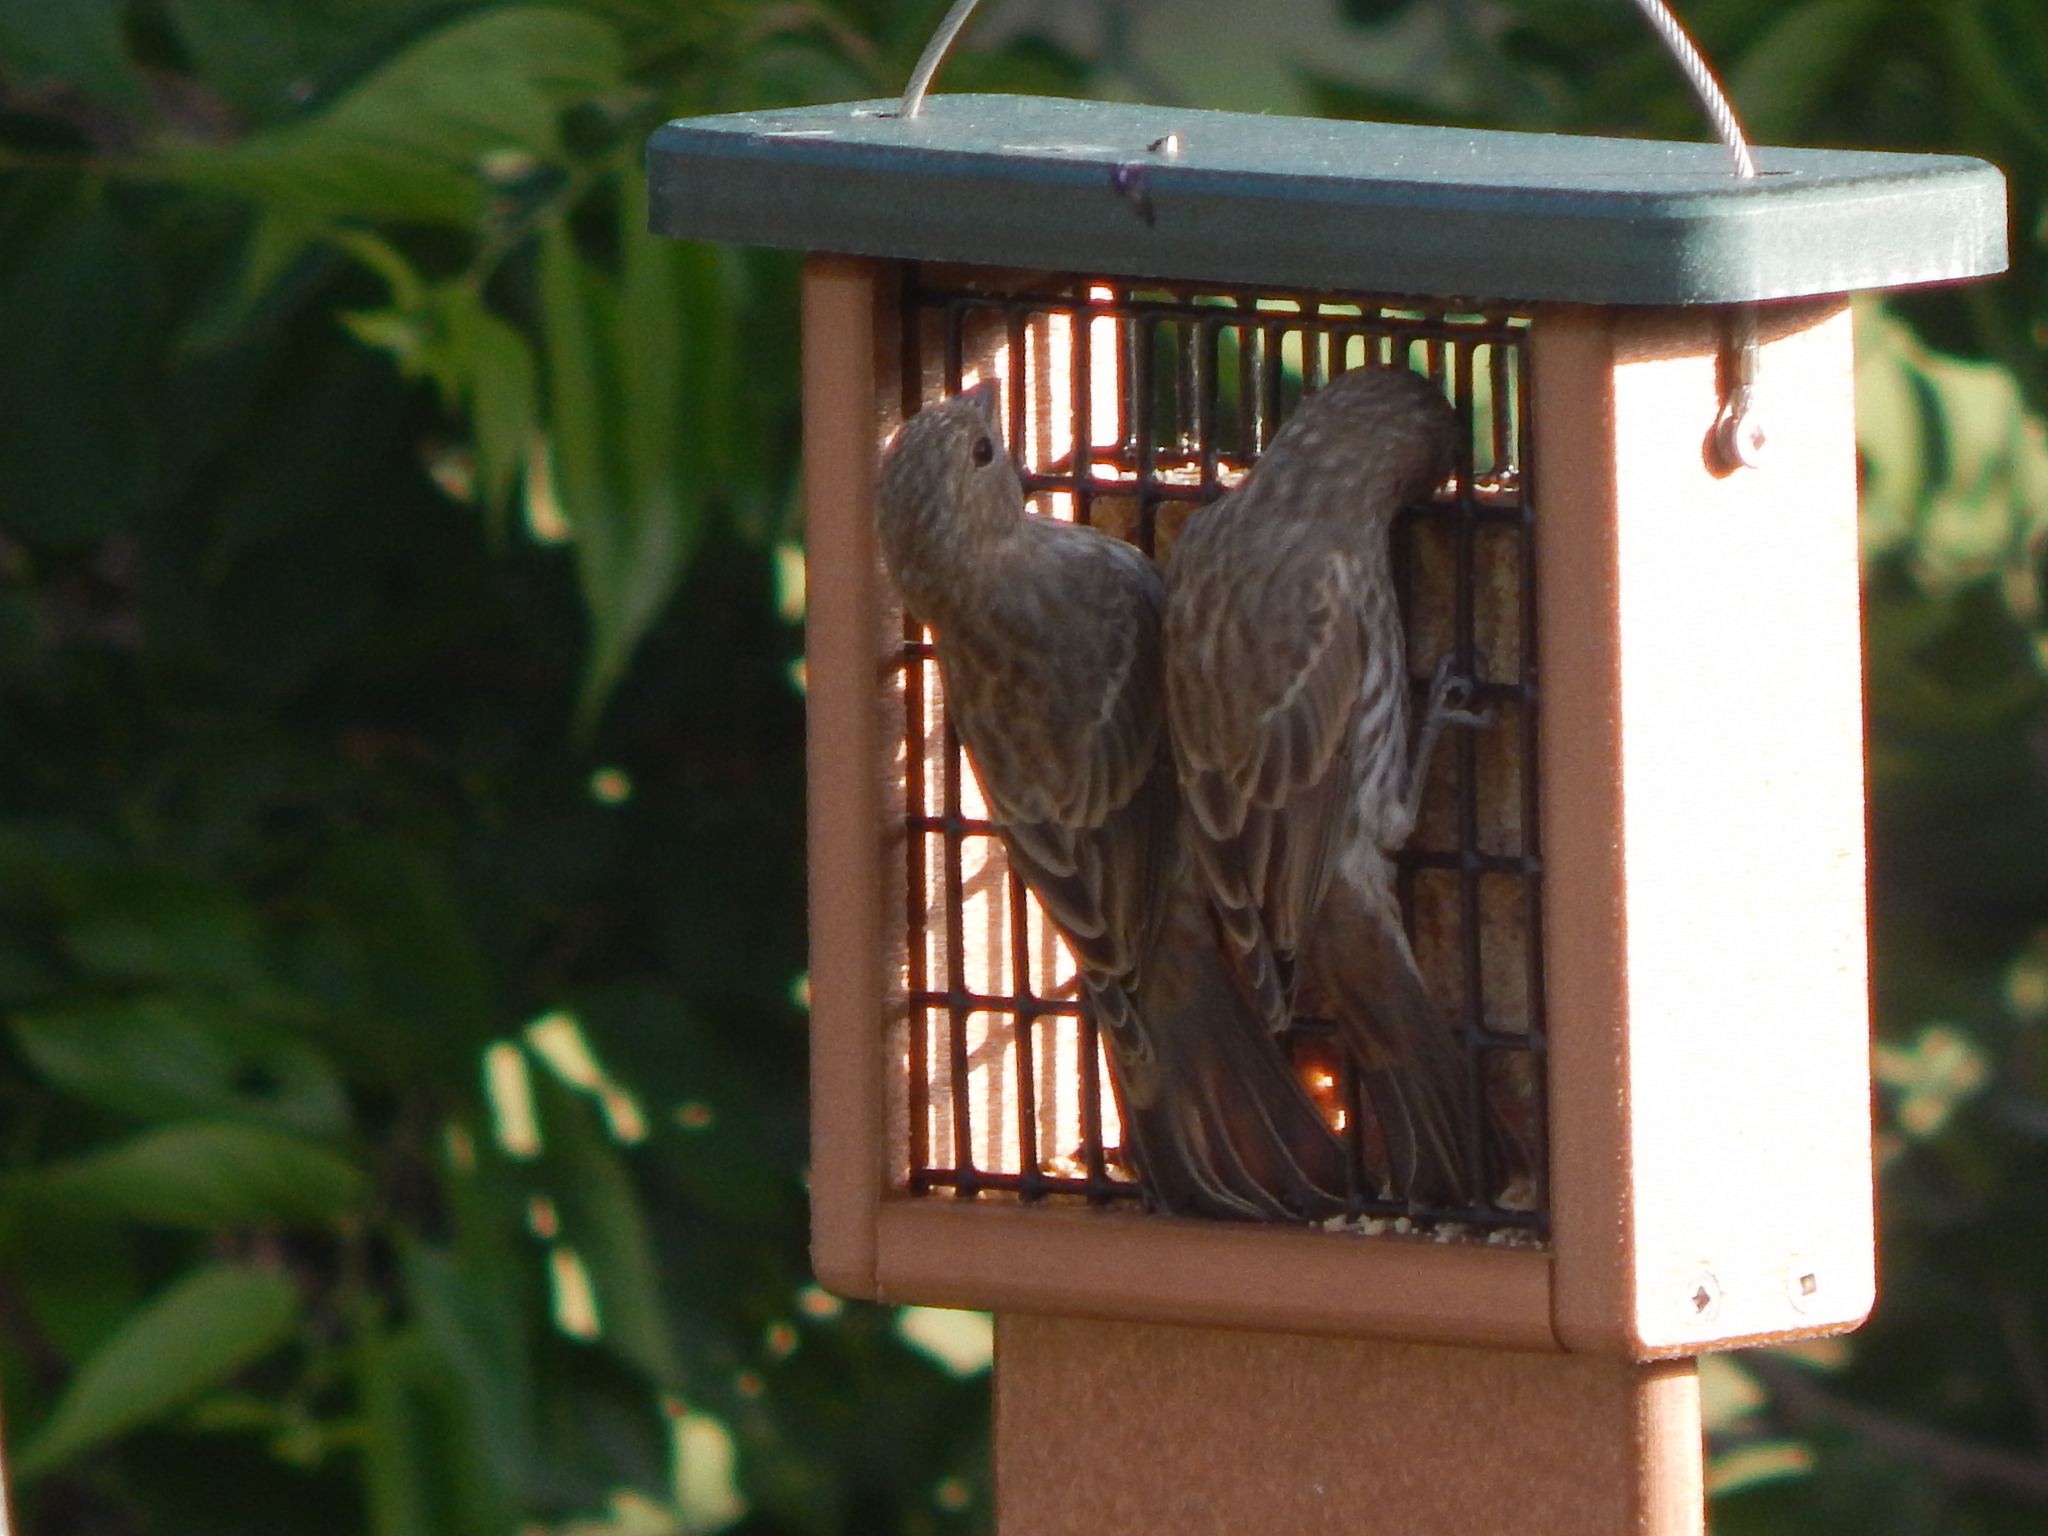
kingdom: Animalia
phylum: Chordata
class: Aves
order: Passeriformes
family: Fringillidae
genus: Haemorhous
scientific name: Haemorhous mexicanus
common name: House finch
